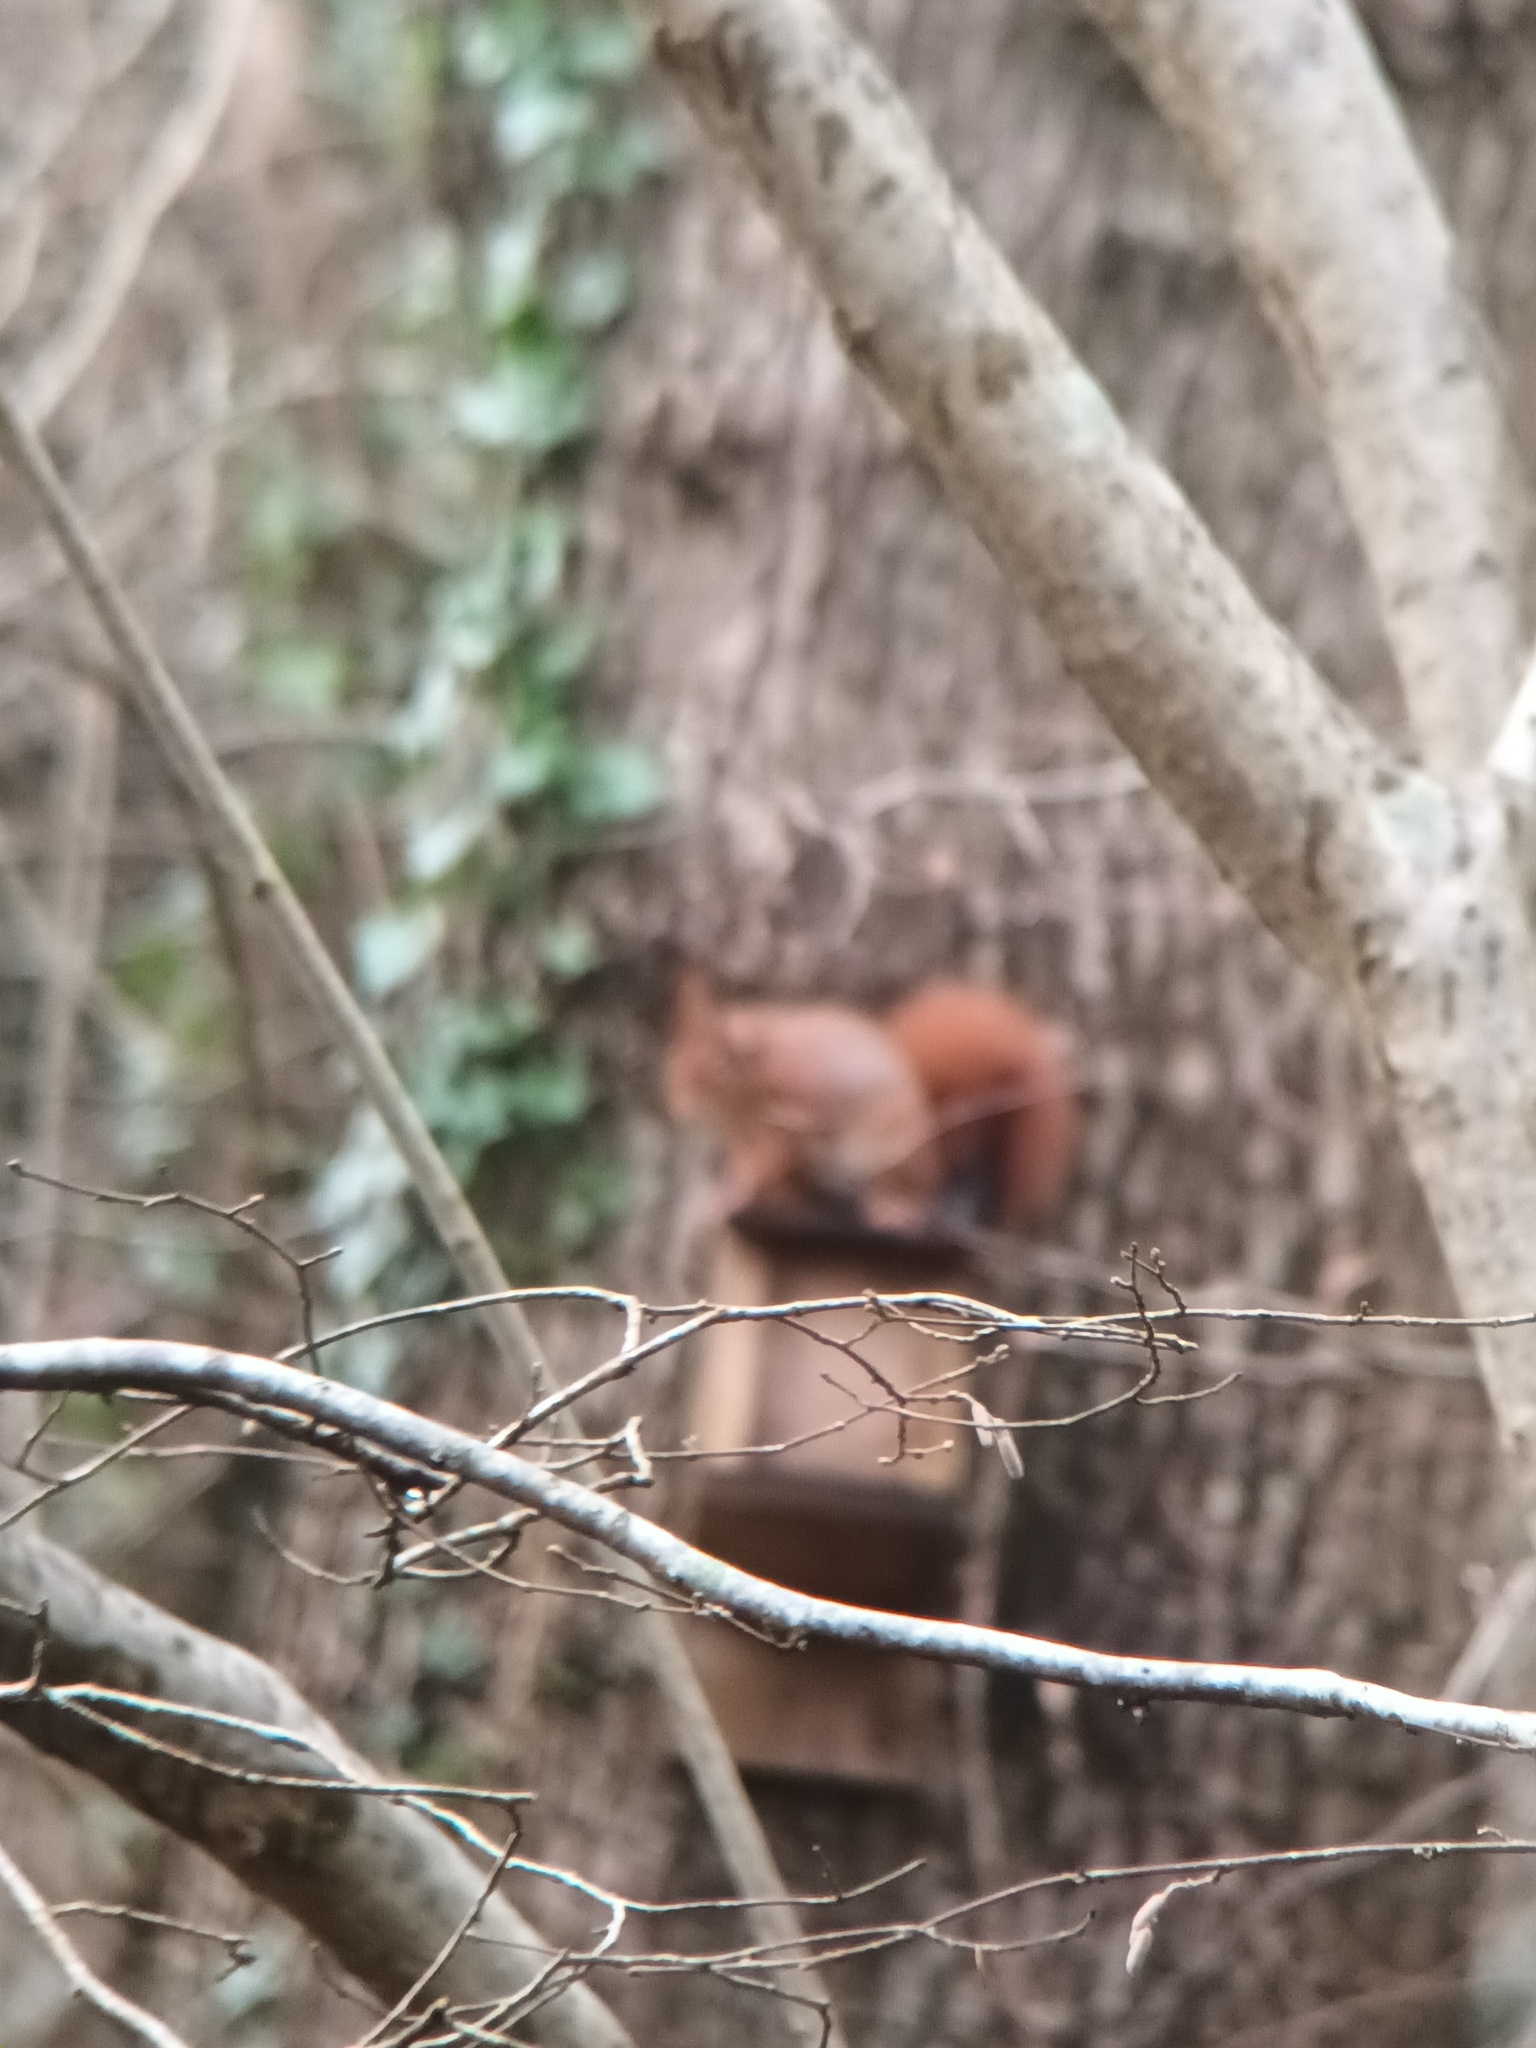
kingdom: Animalia
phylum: Chordata
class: Mammalia
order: Rodentia
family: Sciuridae
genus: Sciurus
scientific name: Sciurus vulgaris
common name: Eurasian red squirrel
